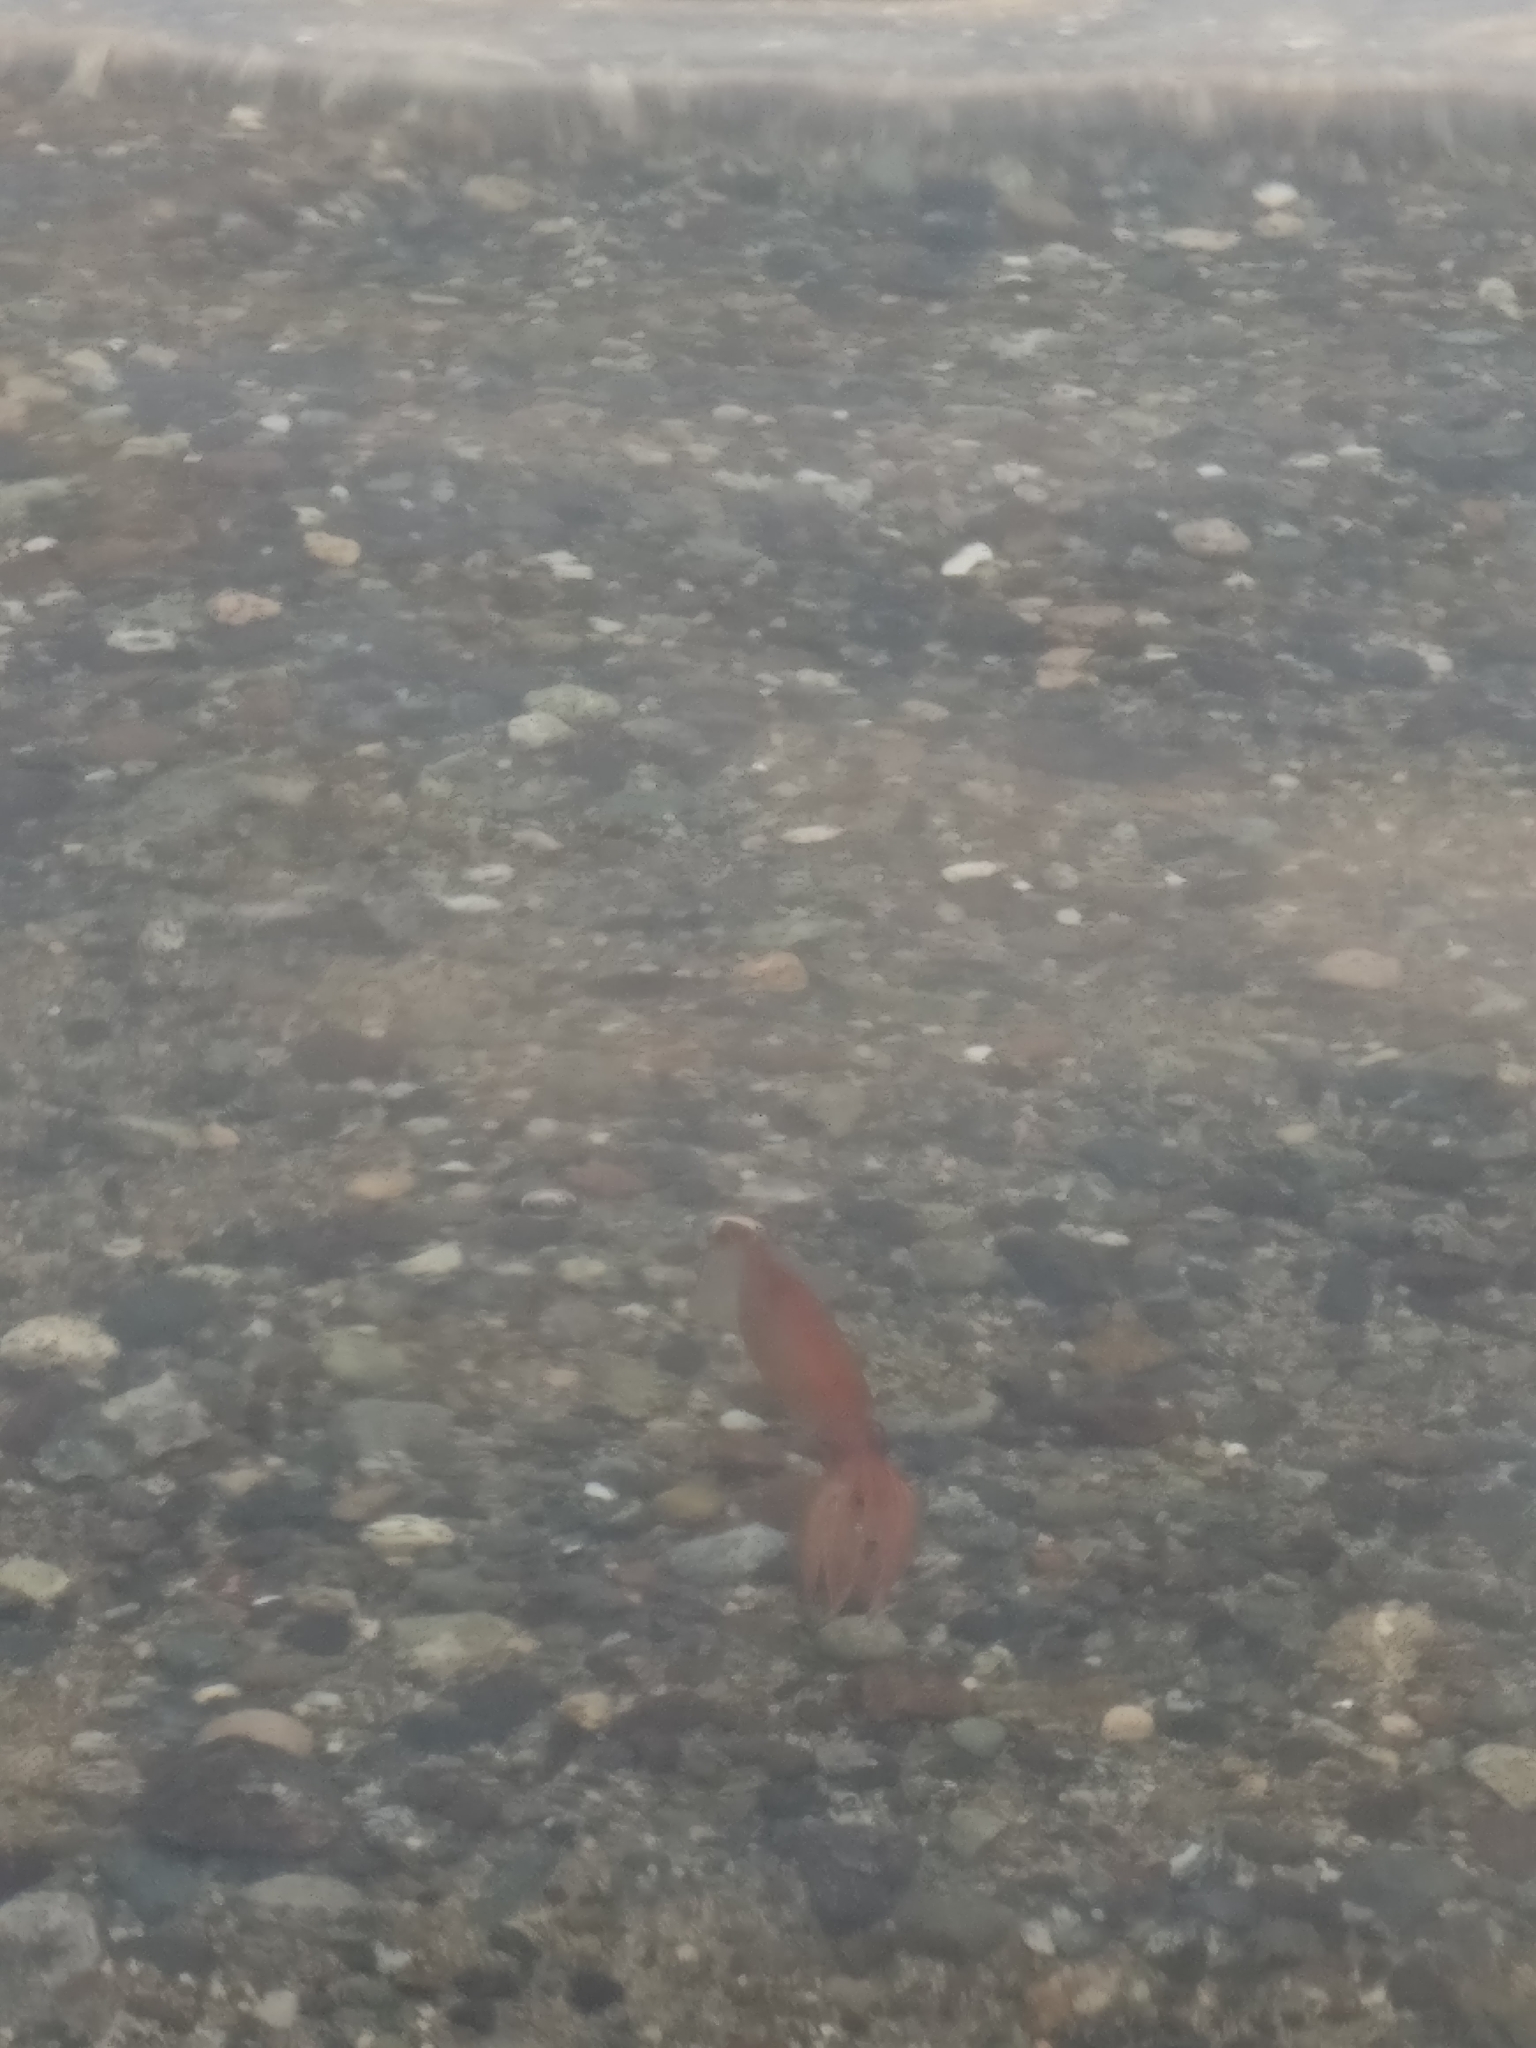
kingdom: Animalia
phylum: Mollusca
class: Cephalopoda
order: Myopsida
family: Loliginidae
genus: Doryteuthis
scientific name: Doryteuthis opalescens
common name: Opalescent inshore squid
